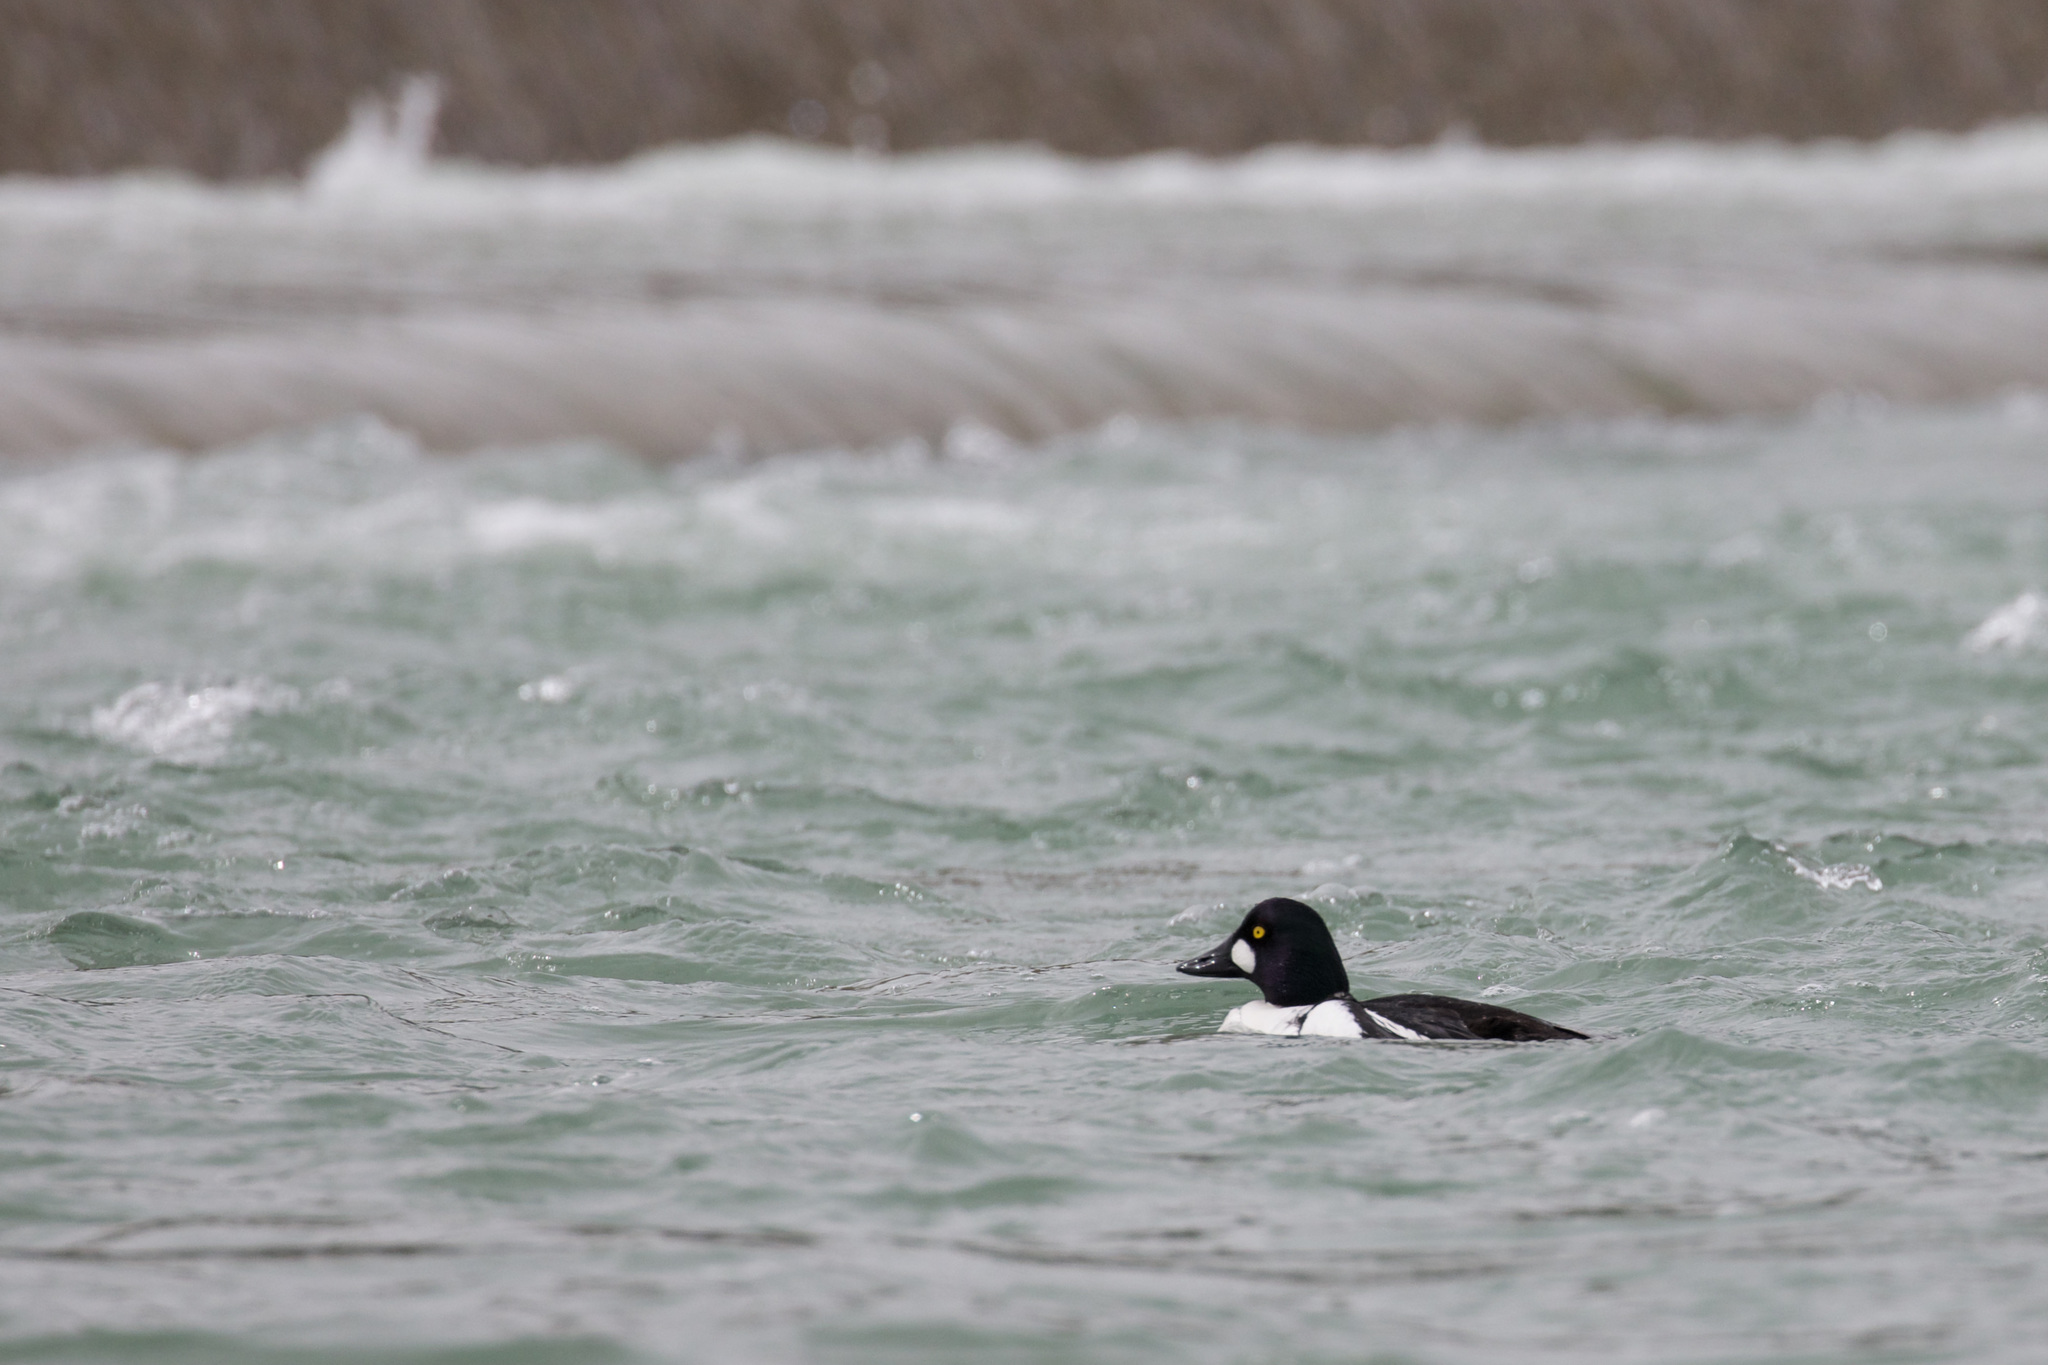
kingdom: Animalia
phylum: Chordata
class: Aves
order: Anseriformes
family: Anatidae
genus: Bucephala
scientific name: Bucephala clangula
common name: Common goldeneye
